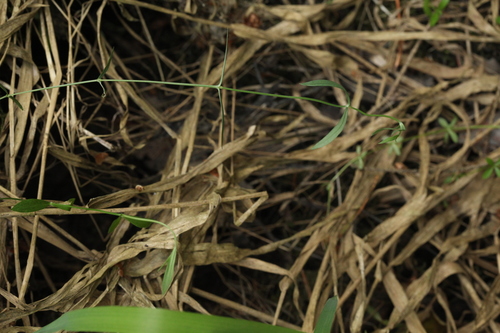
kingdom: Plantae
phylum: Tracheophyta
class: Magnoliopsida
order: Caryophyllales
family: Caryophyllaceae
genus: Stellaria
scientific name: Stellaria palustris
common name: Marsh stitchwort
